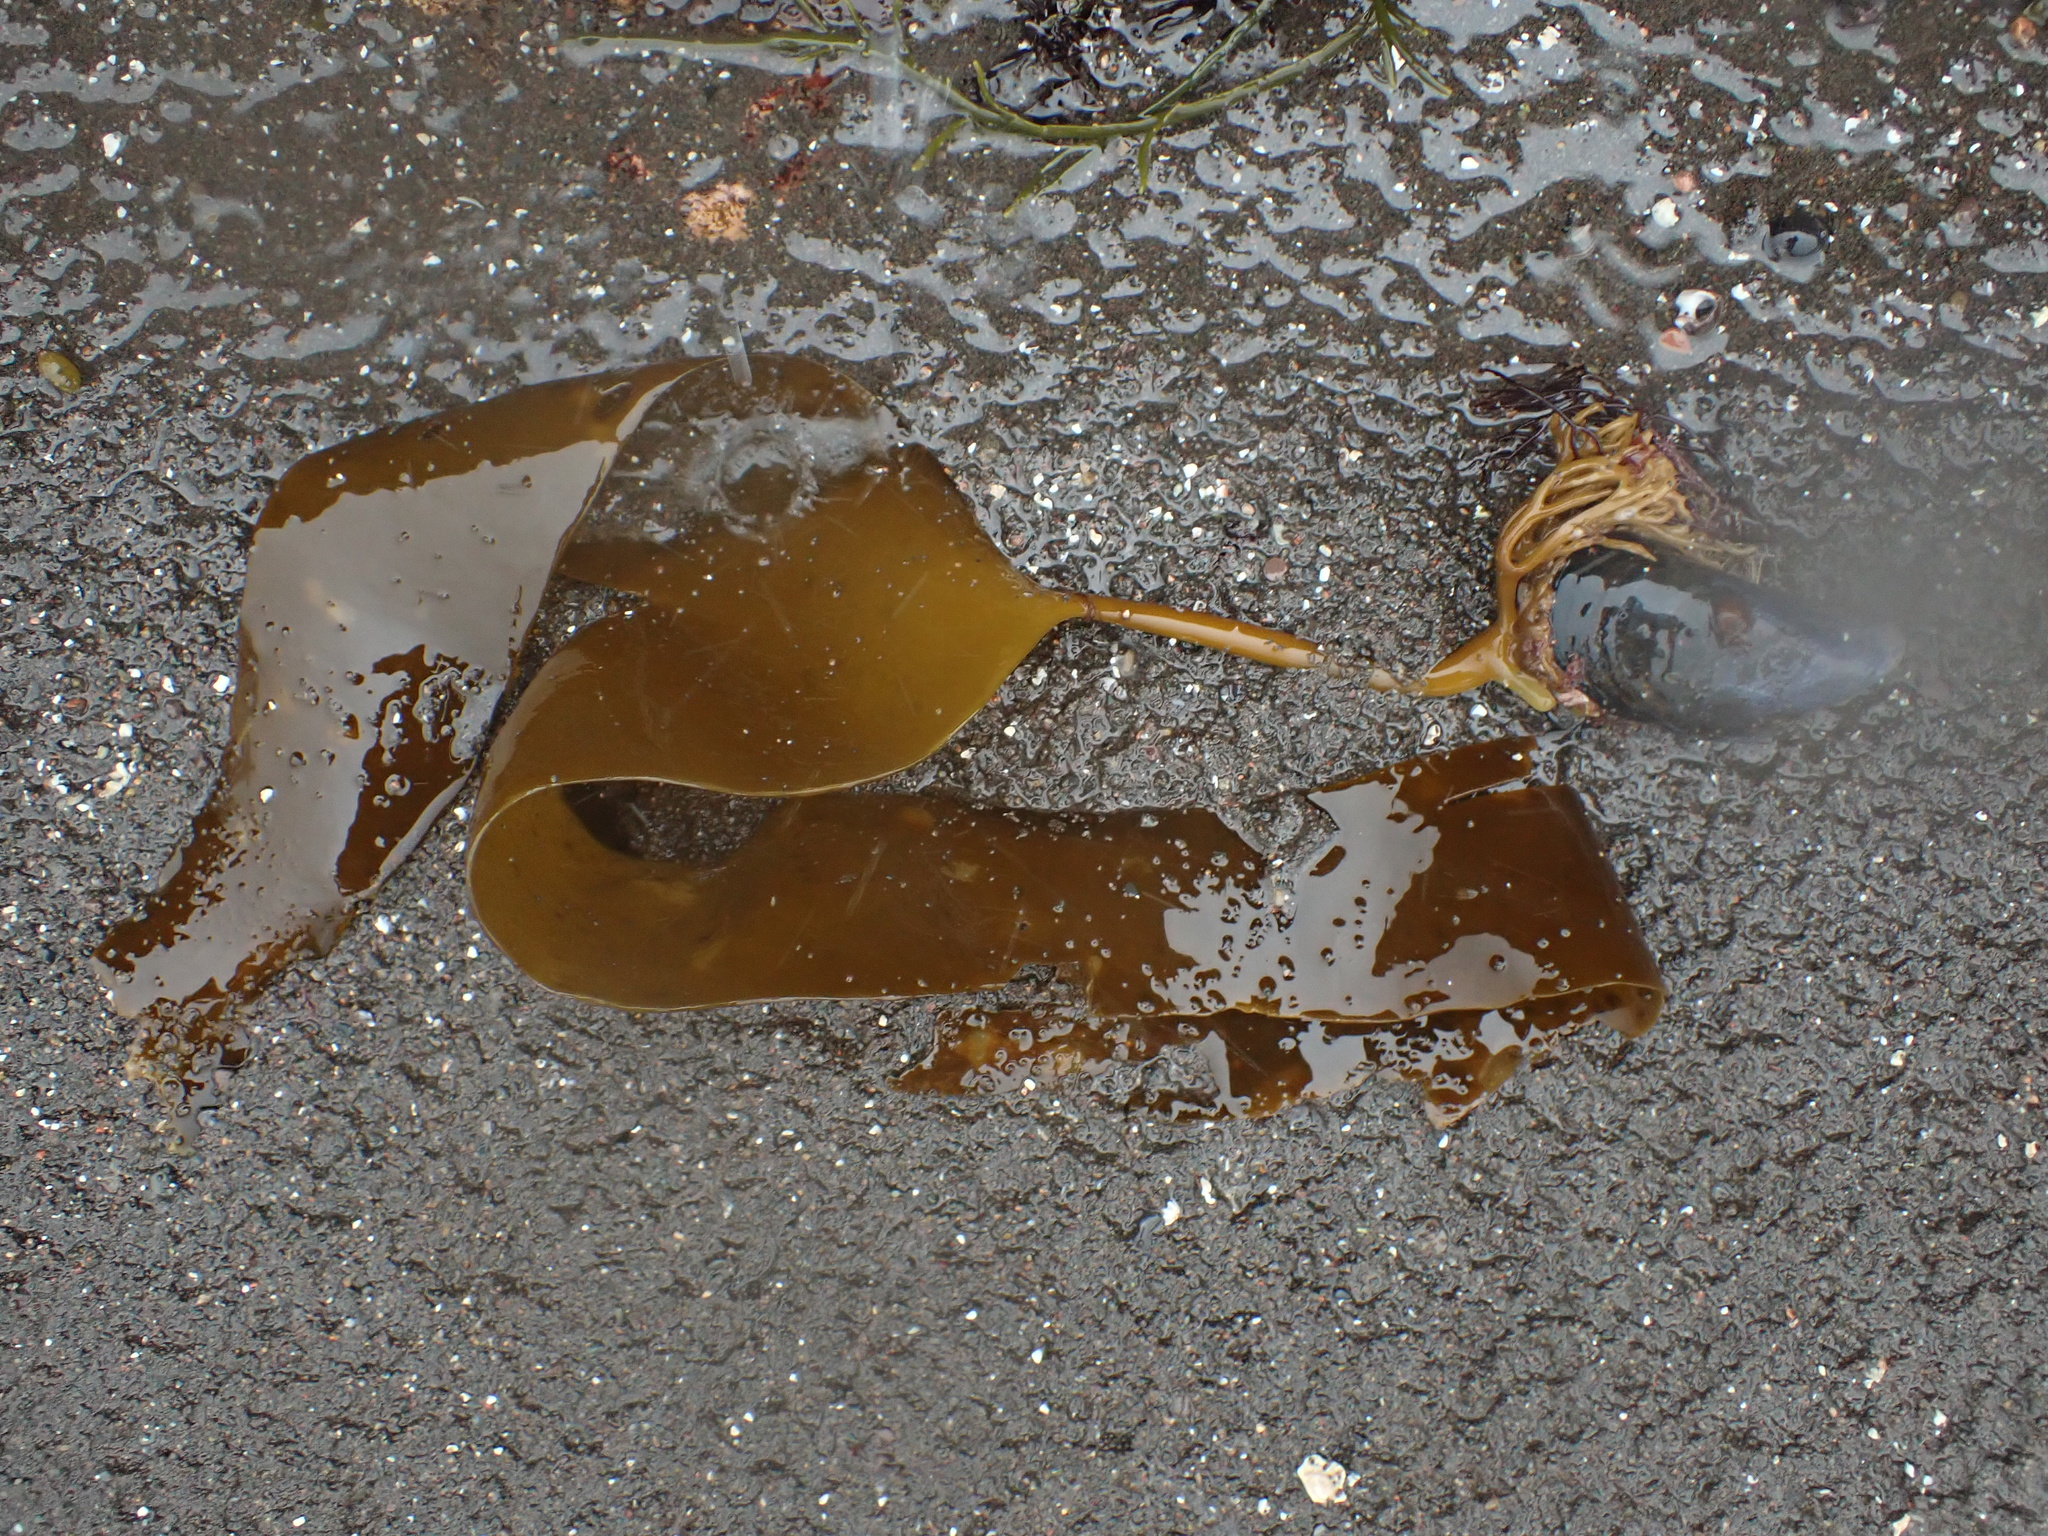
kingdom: Chromista
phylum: Ochrophyta
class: Phaeophyceae
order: Laminariales
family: Laminariaceae
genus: Laminaria
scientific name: Laminaria digitata
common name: Oarweed
